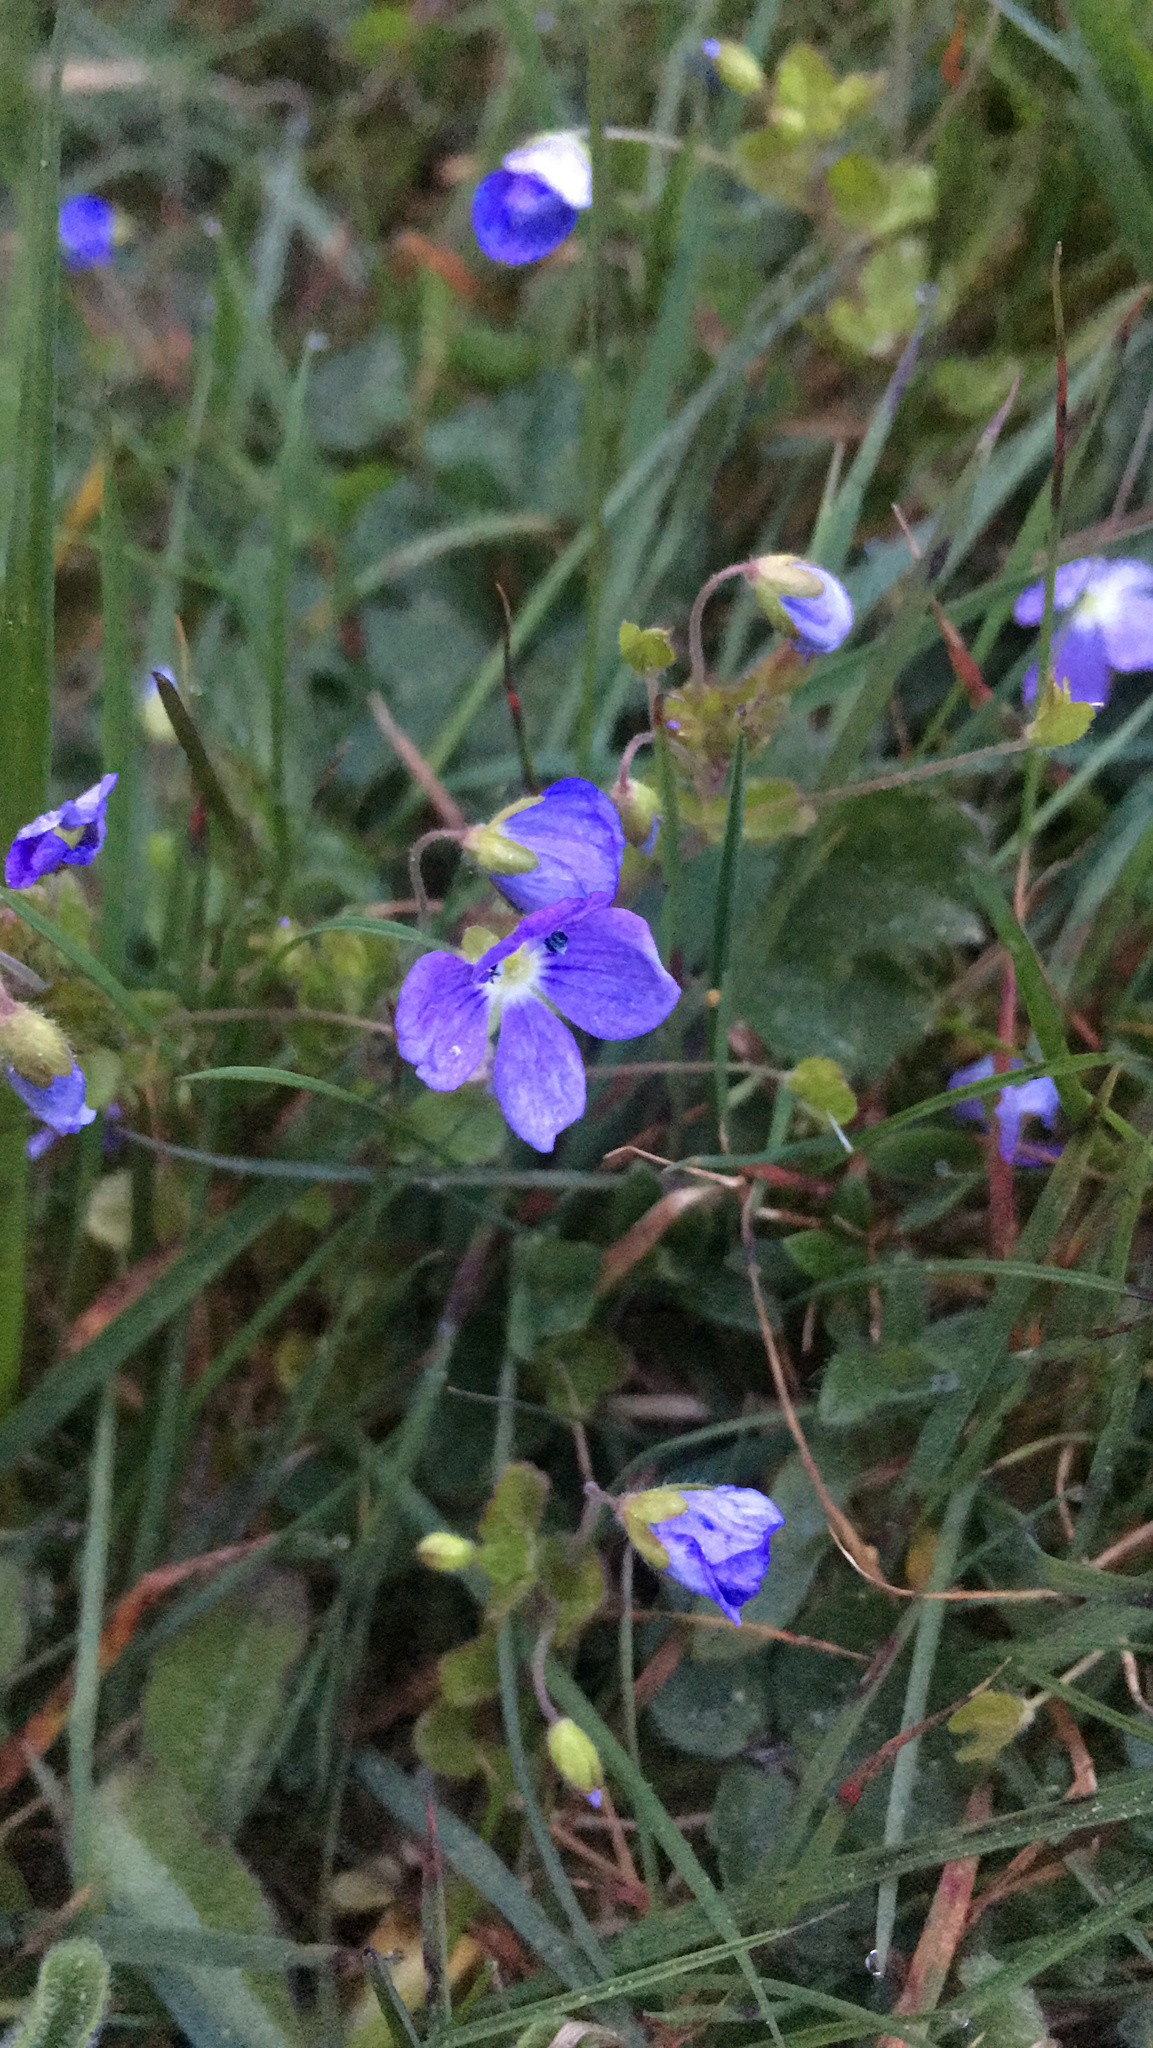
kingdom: Plantae
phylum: Tracheophyta
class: Magnoliopsida
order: Lamiales
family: Plantaginaceae
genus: Veronica
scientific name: Veronica filiformis
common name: Slender speedwell
